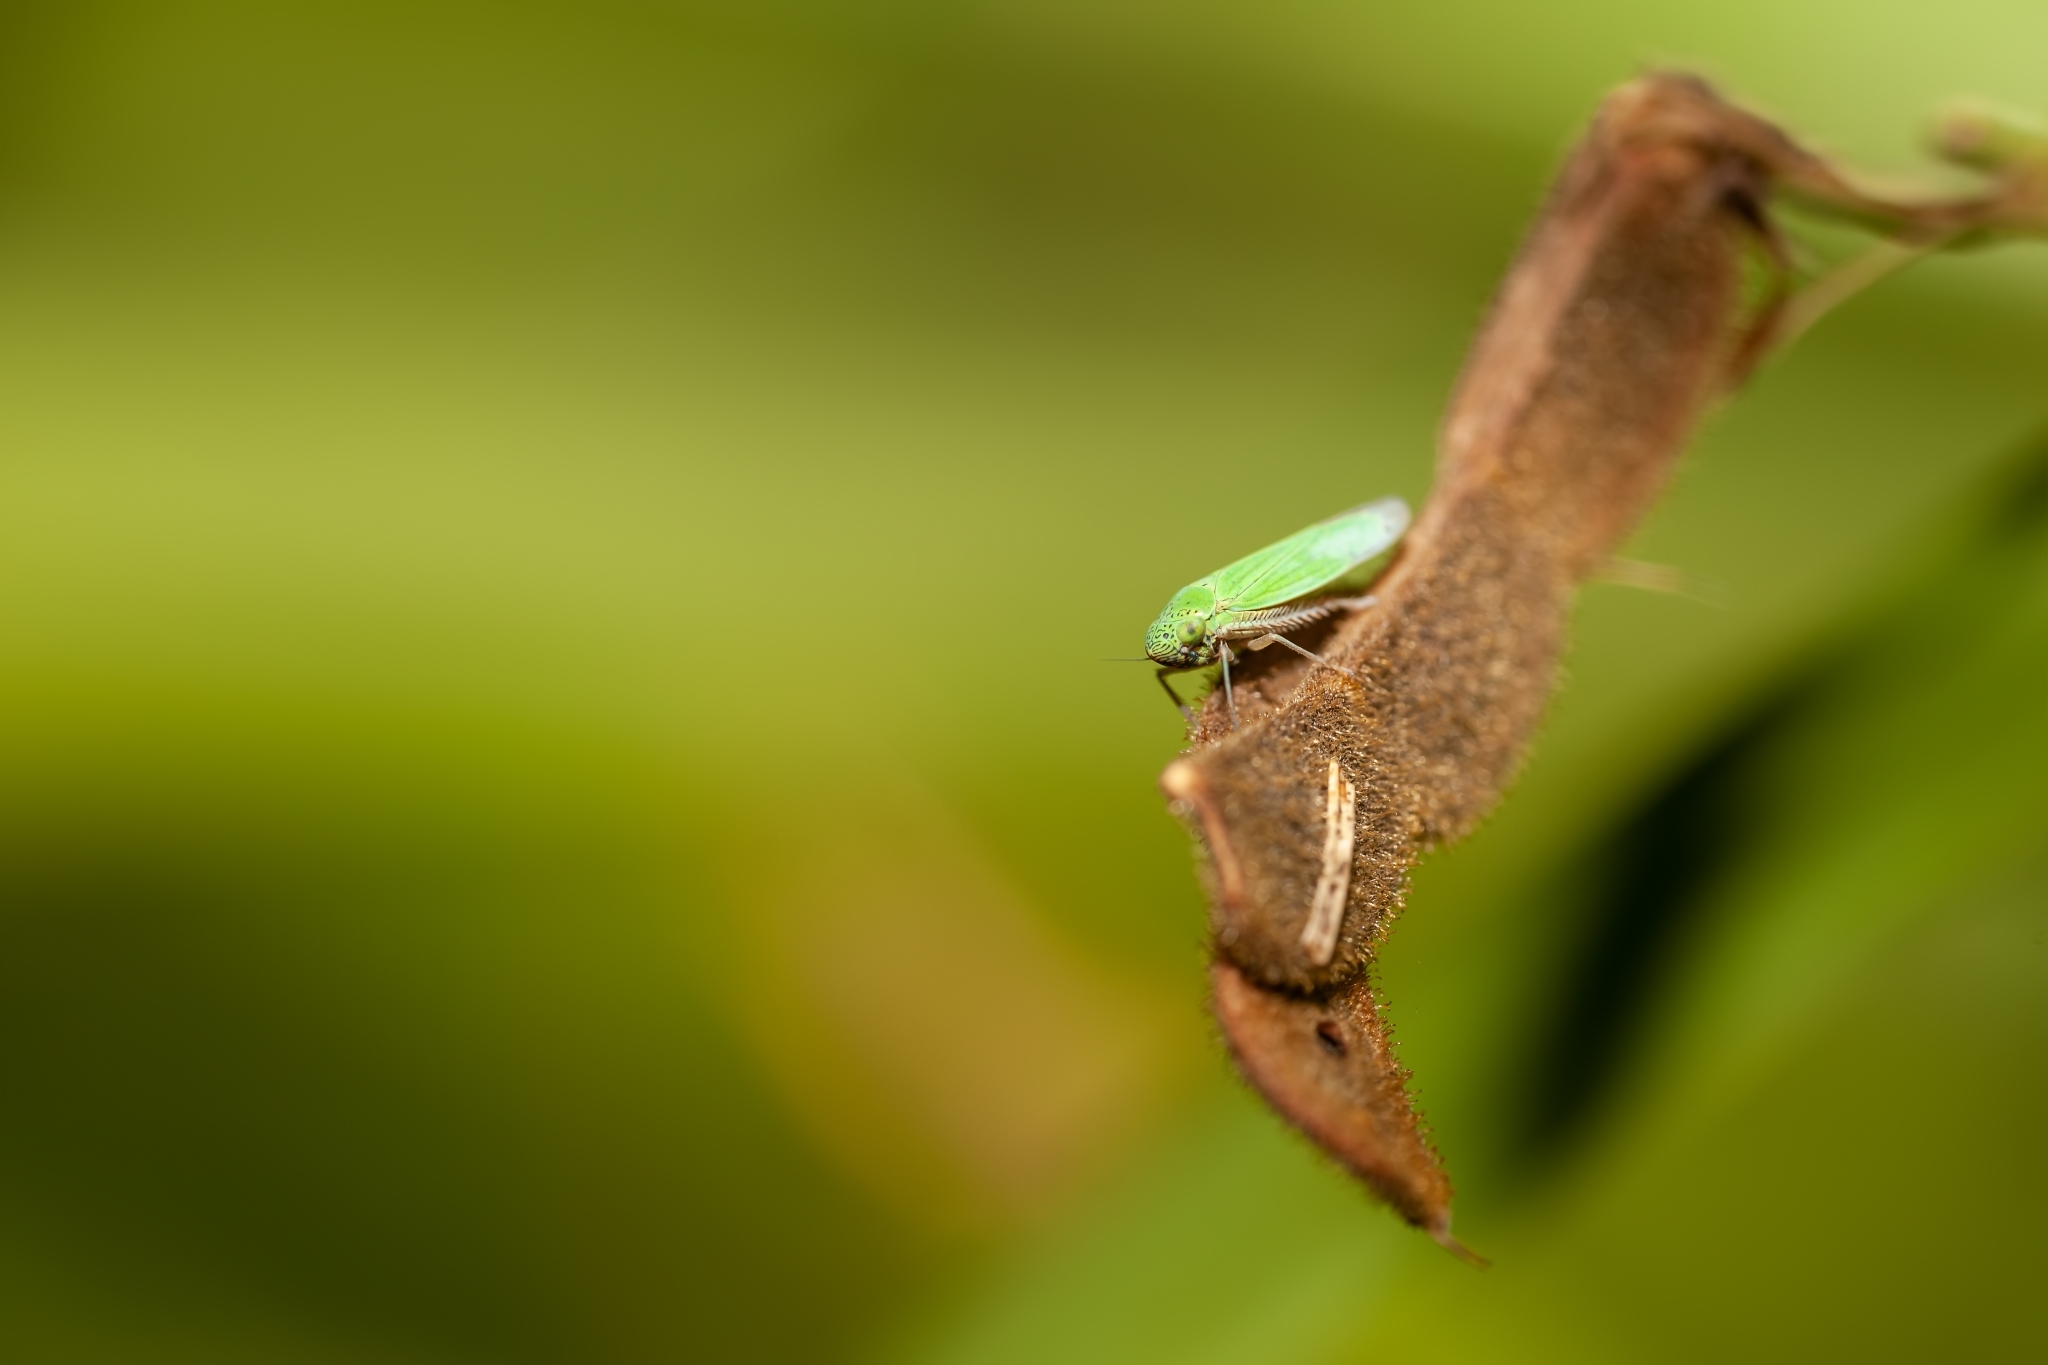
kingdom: Animalia
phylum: Arthropoda
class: Insecta
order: Hemiptera
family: Cicadellidae
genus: Hortensia
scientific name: Hortensia similis
